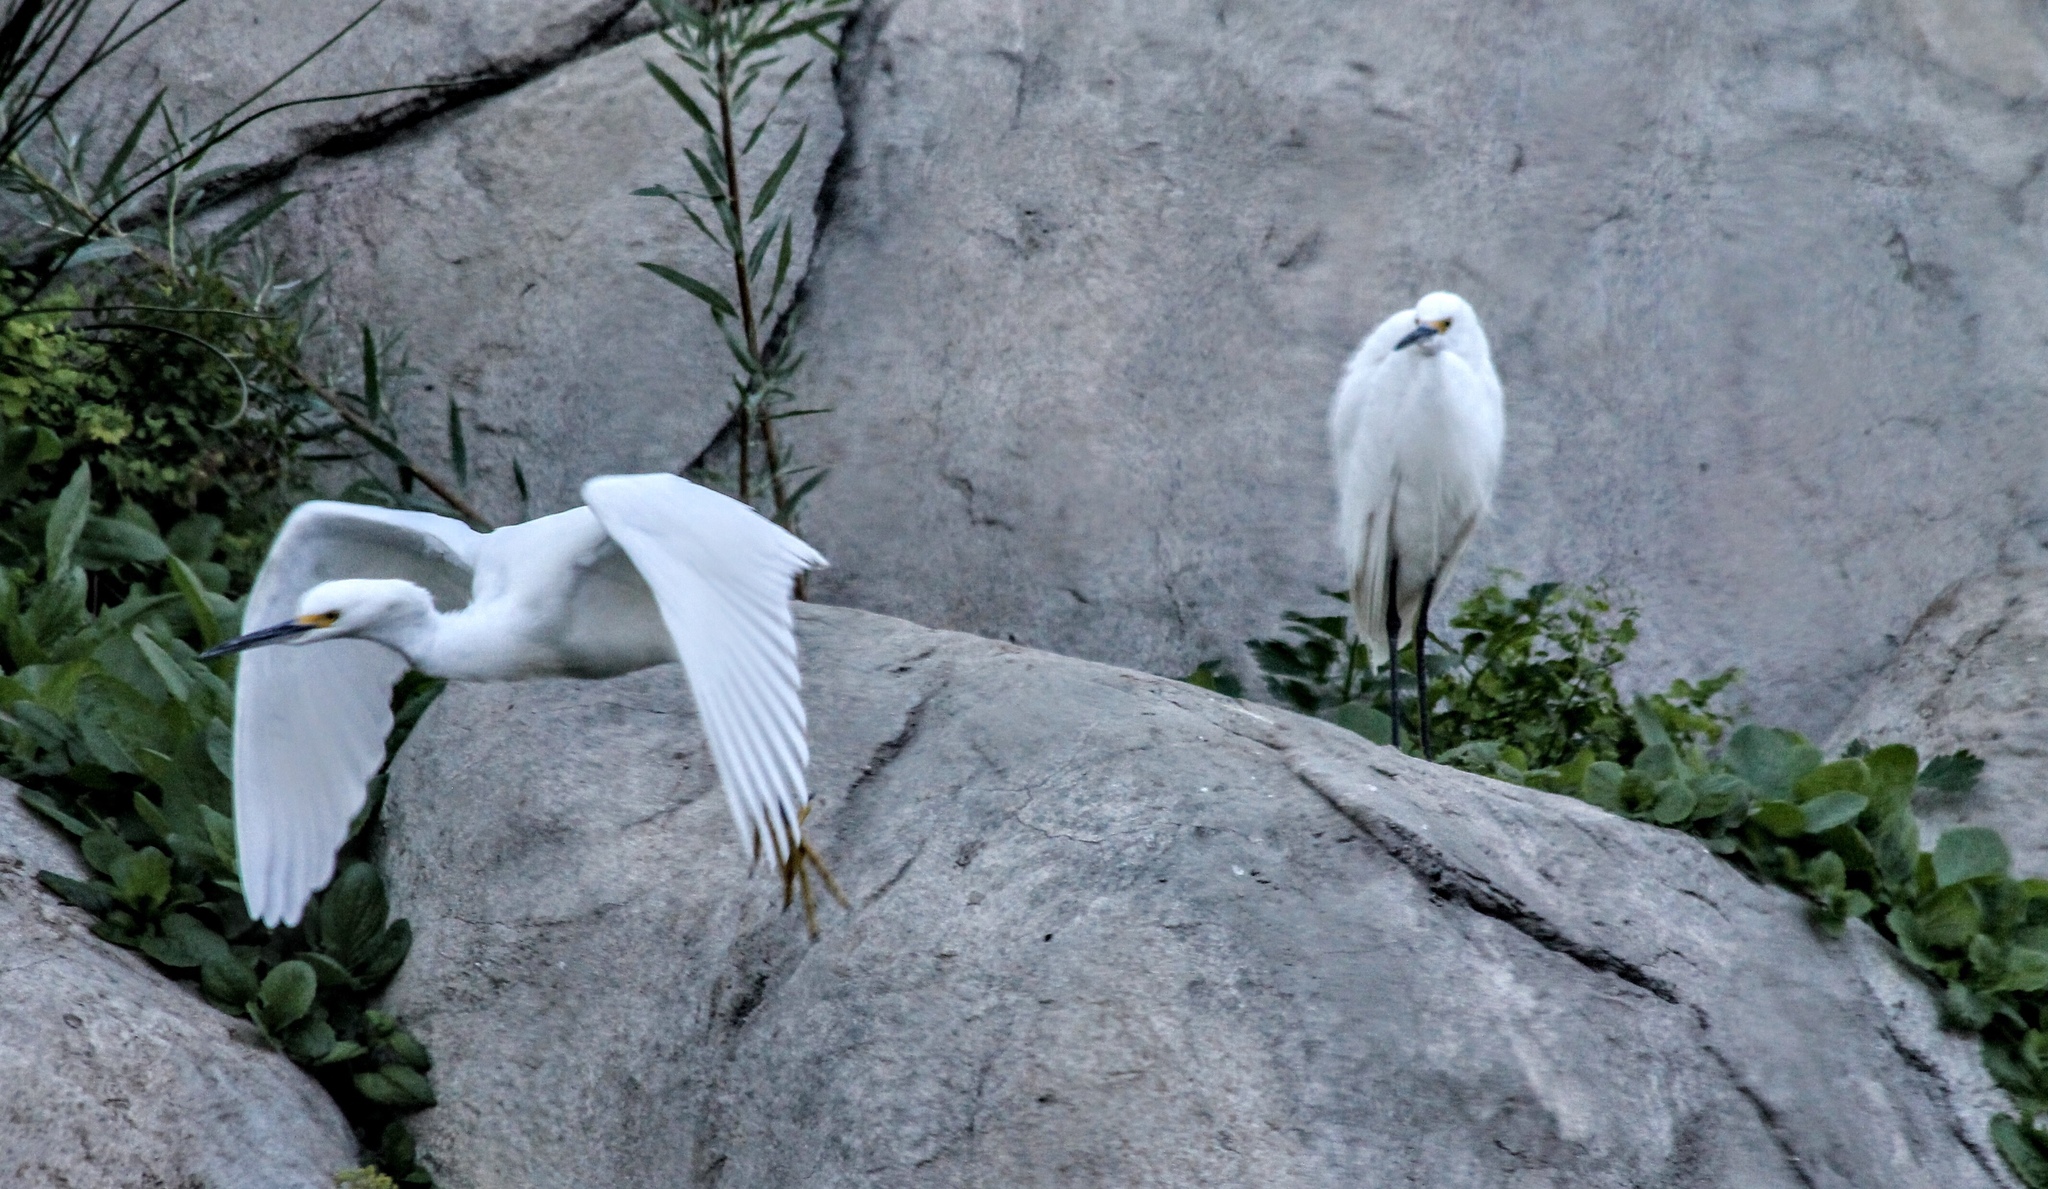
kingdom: Animalia
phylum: Chordata
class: Aves
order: Pelecaniformes
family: Ardeidae
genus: Egretta
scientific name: Egretta thula
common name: Snowy egret
